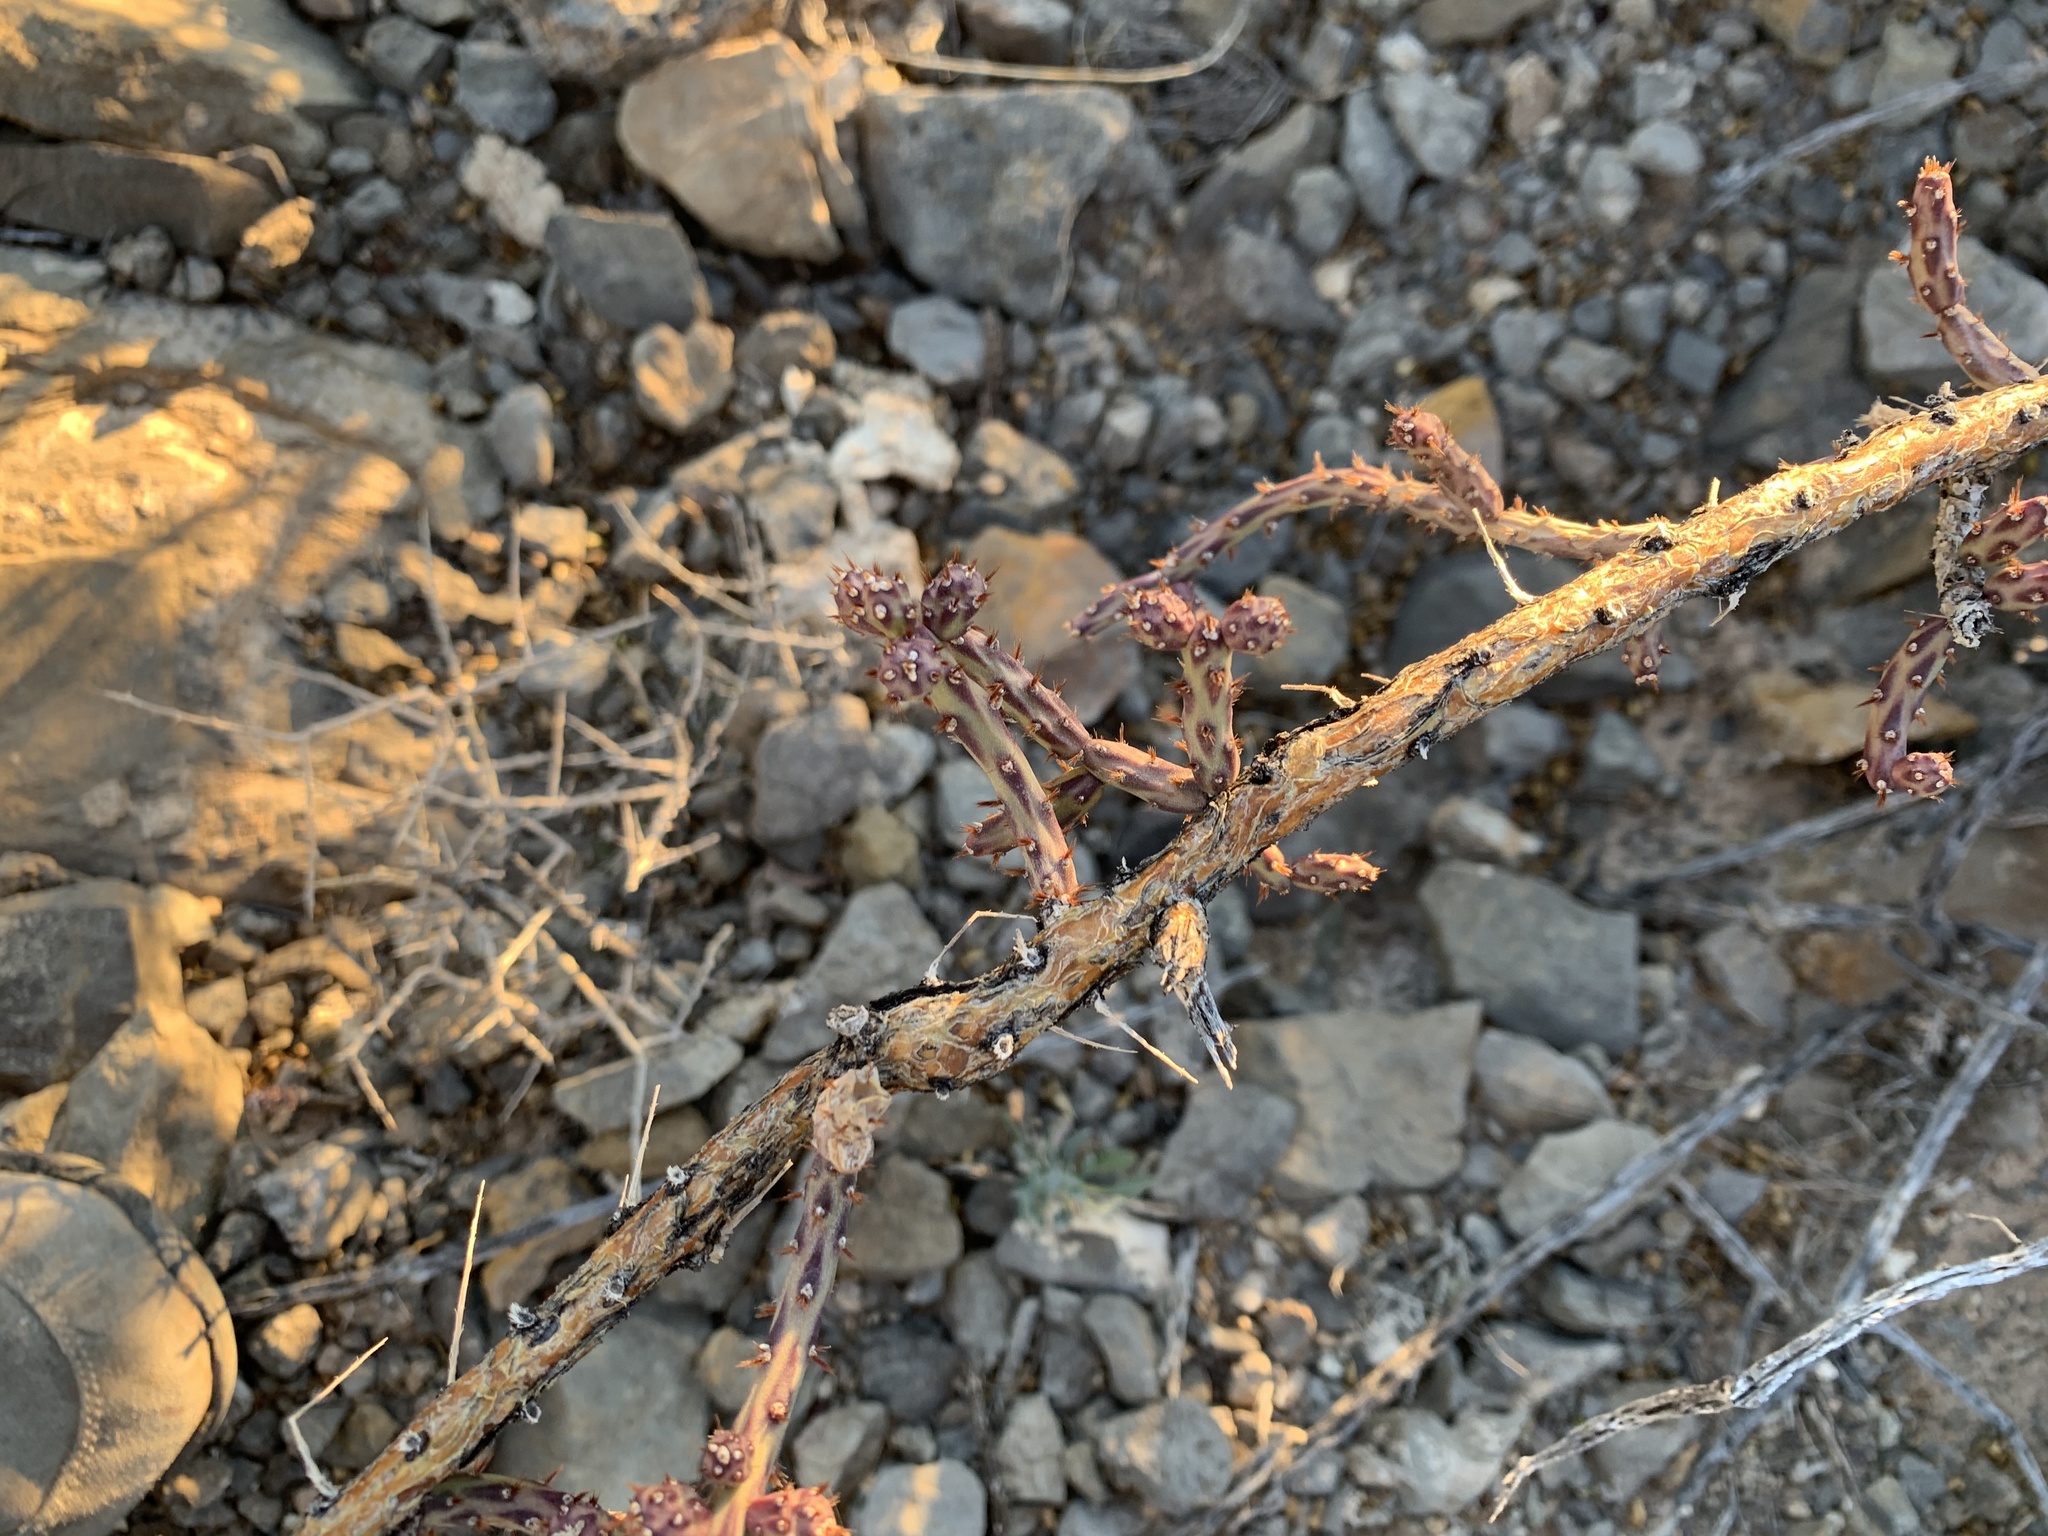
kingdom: Plantae
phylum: Tracheophyta
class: Magnoliopsida
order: Caryophyllales
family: Cactaceae
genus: Cylindropuntia
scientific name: Cylindropuntia leptocaulis
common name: Christmas cactus
